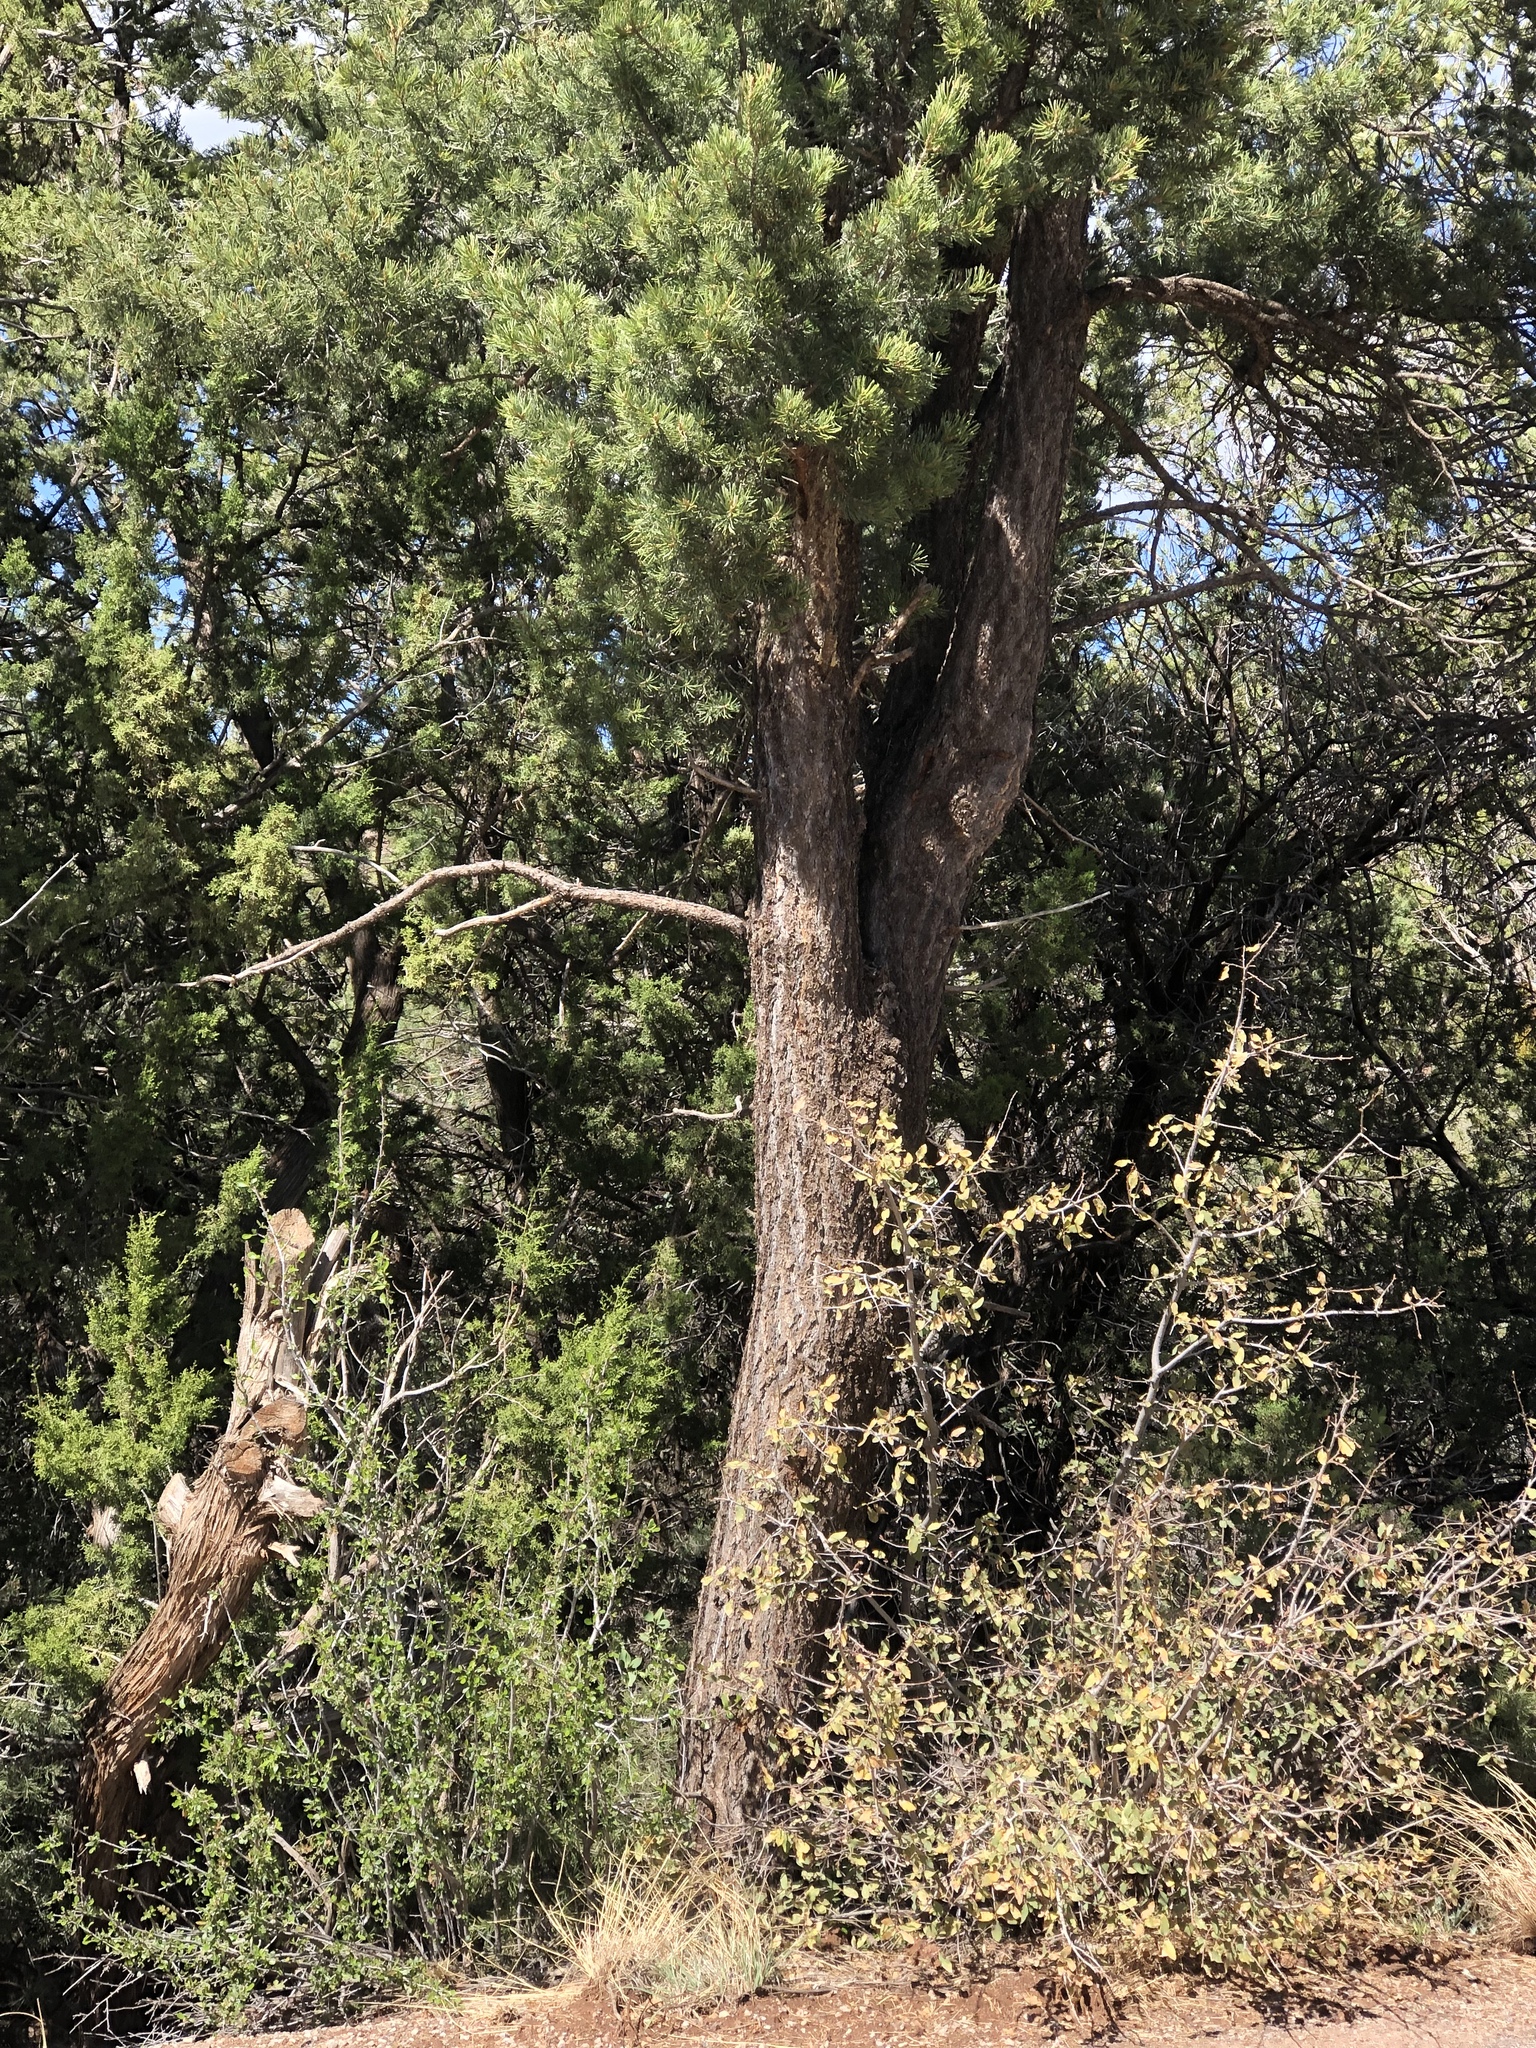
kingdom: Plantae
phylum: Tracheophyta
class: Pinopsida
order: Pinales
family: Pinaceae
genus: Pinus
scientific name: Pinus edulis
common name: Colorado pinyon
